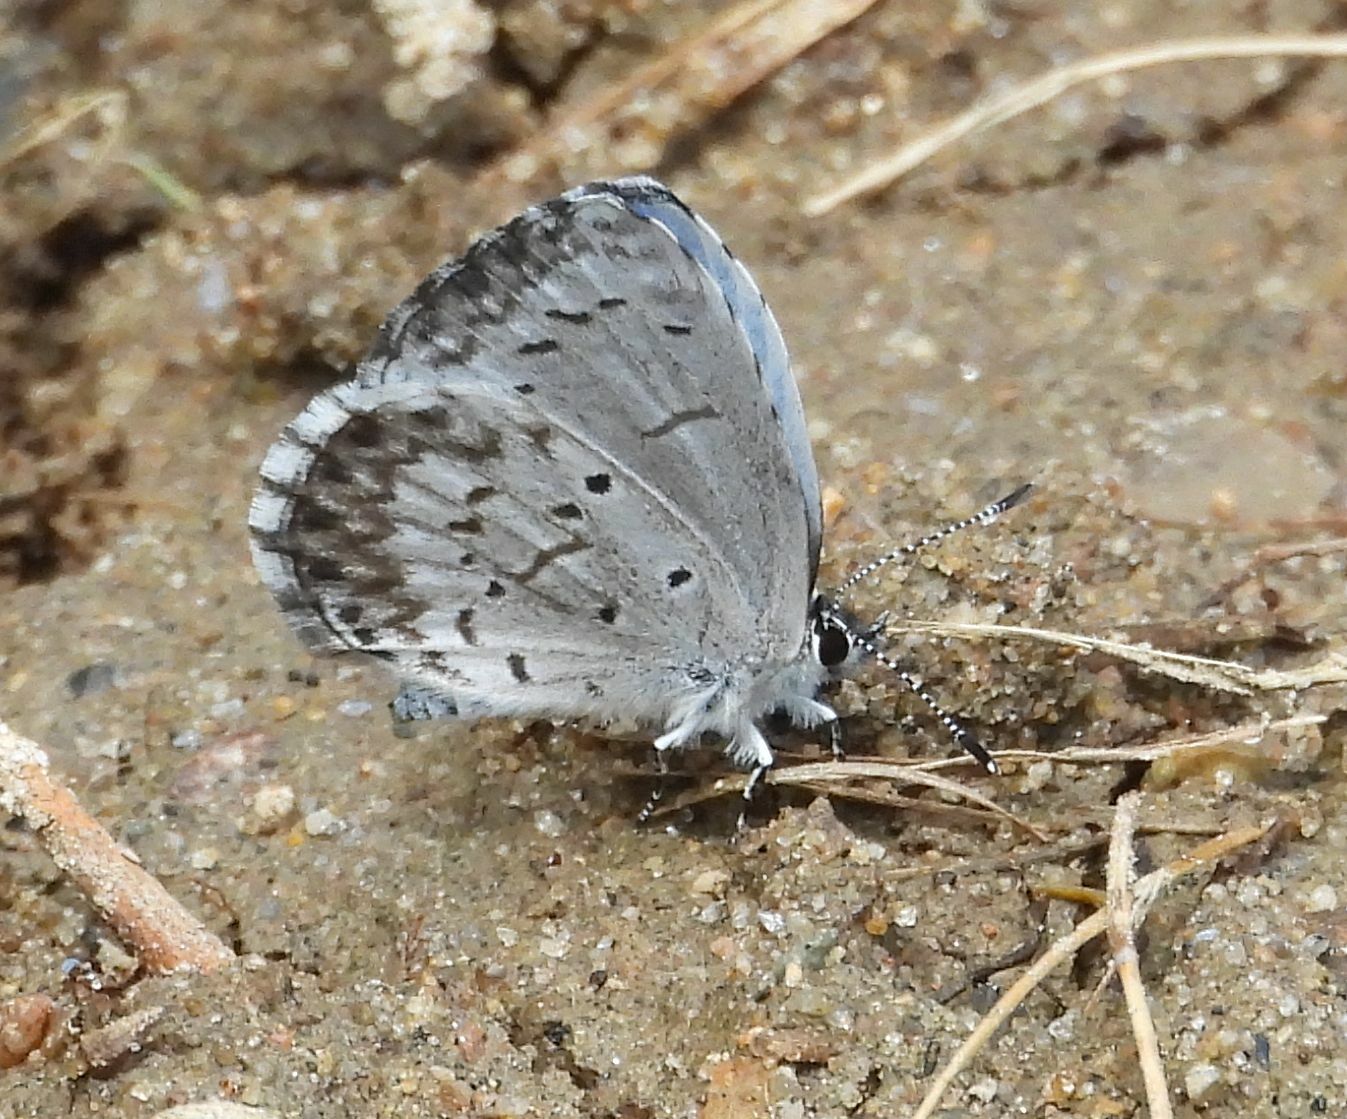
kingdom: Animalia
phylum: Arthropoda
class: Insecta
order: Lepidoptera
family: Lycaenidae
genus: Celastrina
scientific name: Celastrina lucia
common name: Lucia azure
